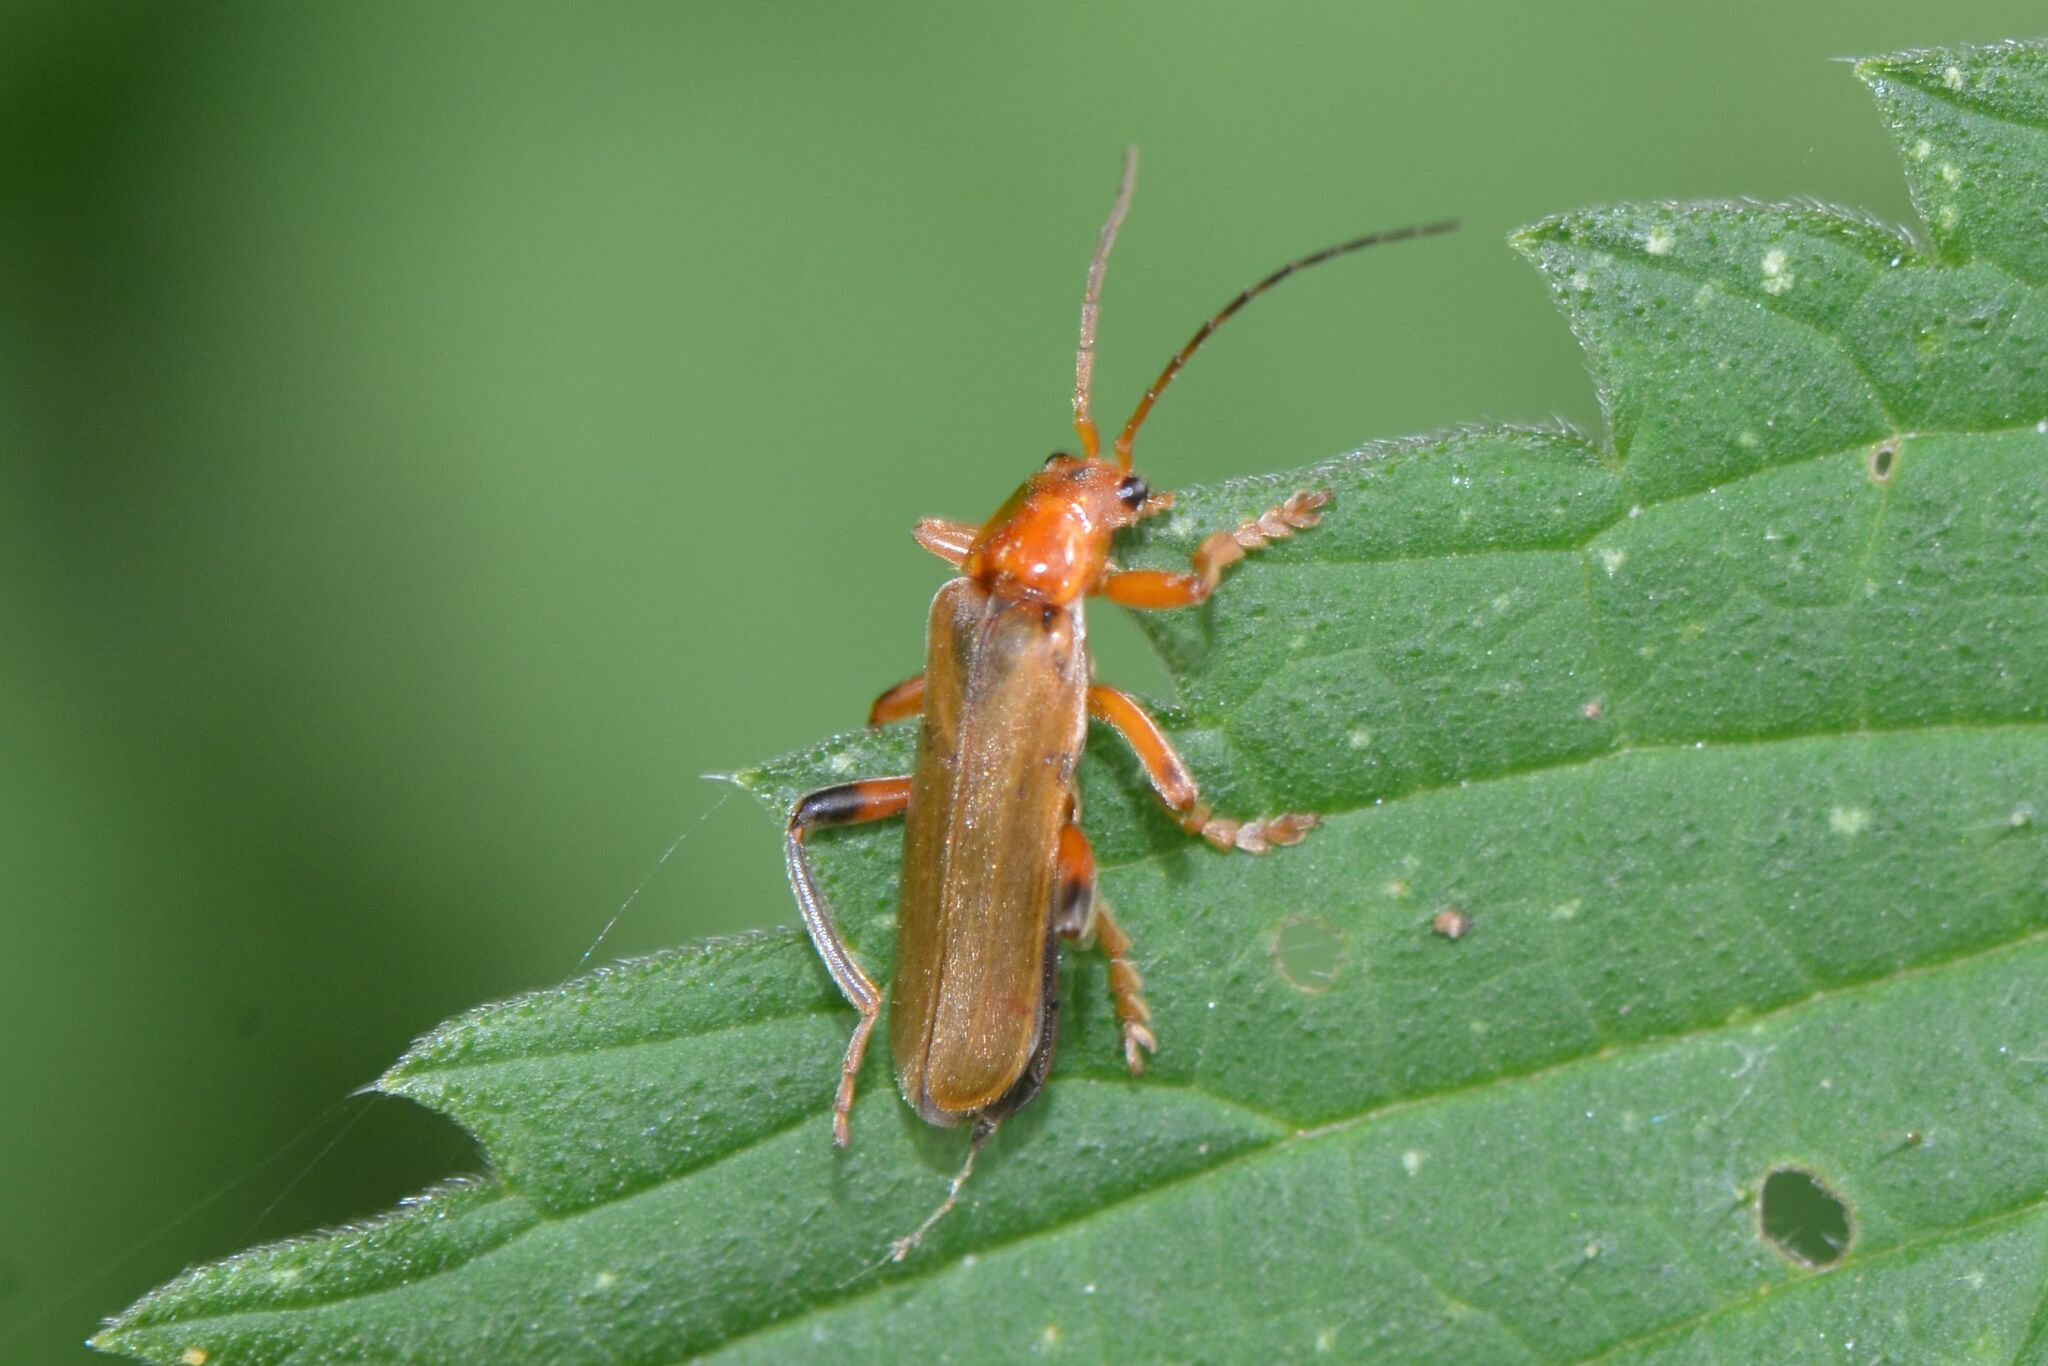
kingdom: Animalia
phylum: Arthropoda
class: Insecta
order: Coleoptera
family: Cantharidae
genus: Cantharis
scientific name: Cantharis livida
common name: Livid soldier beetle
